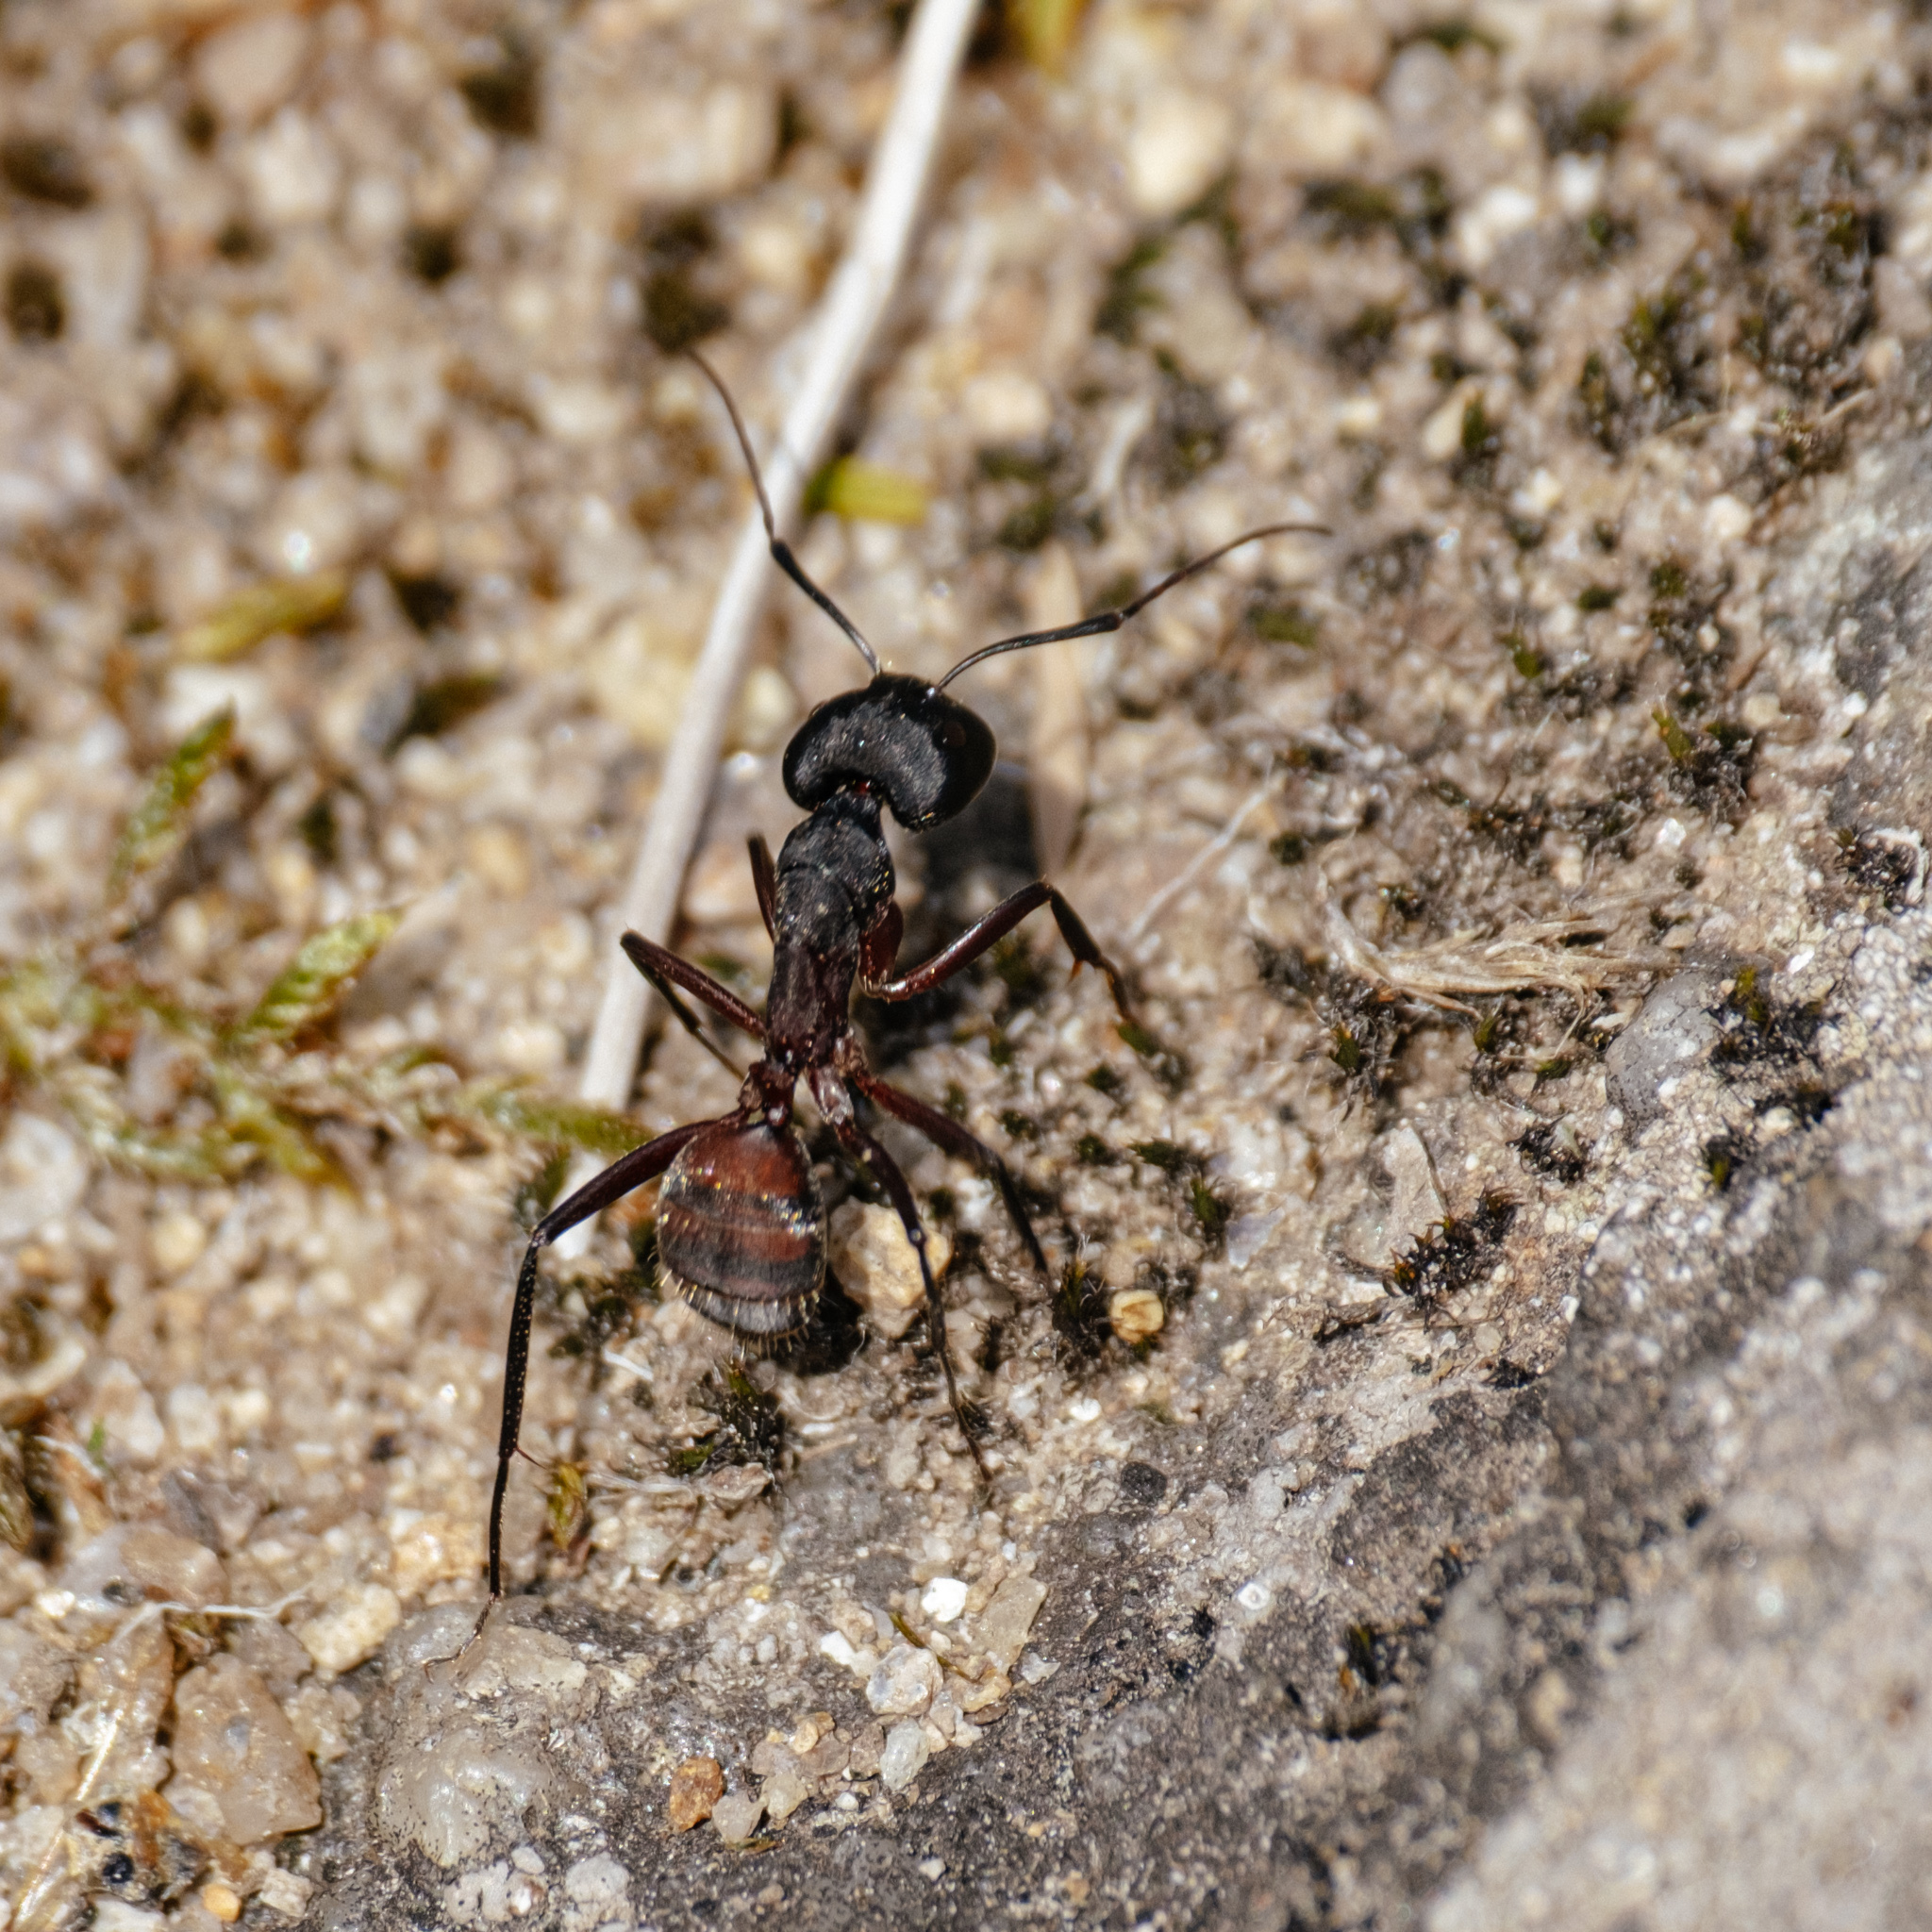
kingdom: Animalia
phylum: Arthropoda
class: Insecta
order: Hymenoptera
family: Formicidae
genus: Camponotus
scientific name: Camponotus cruentatus
